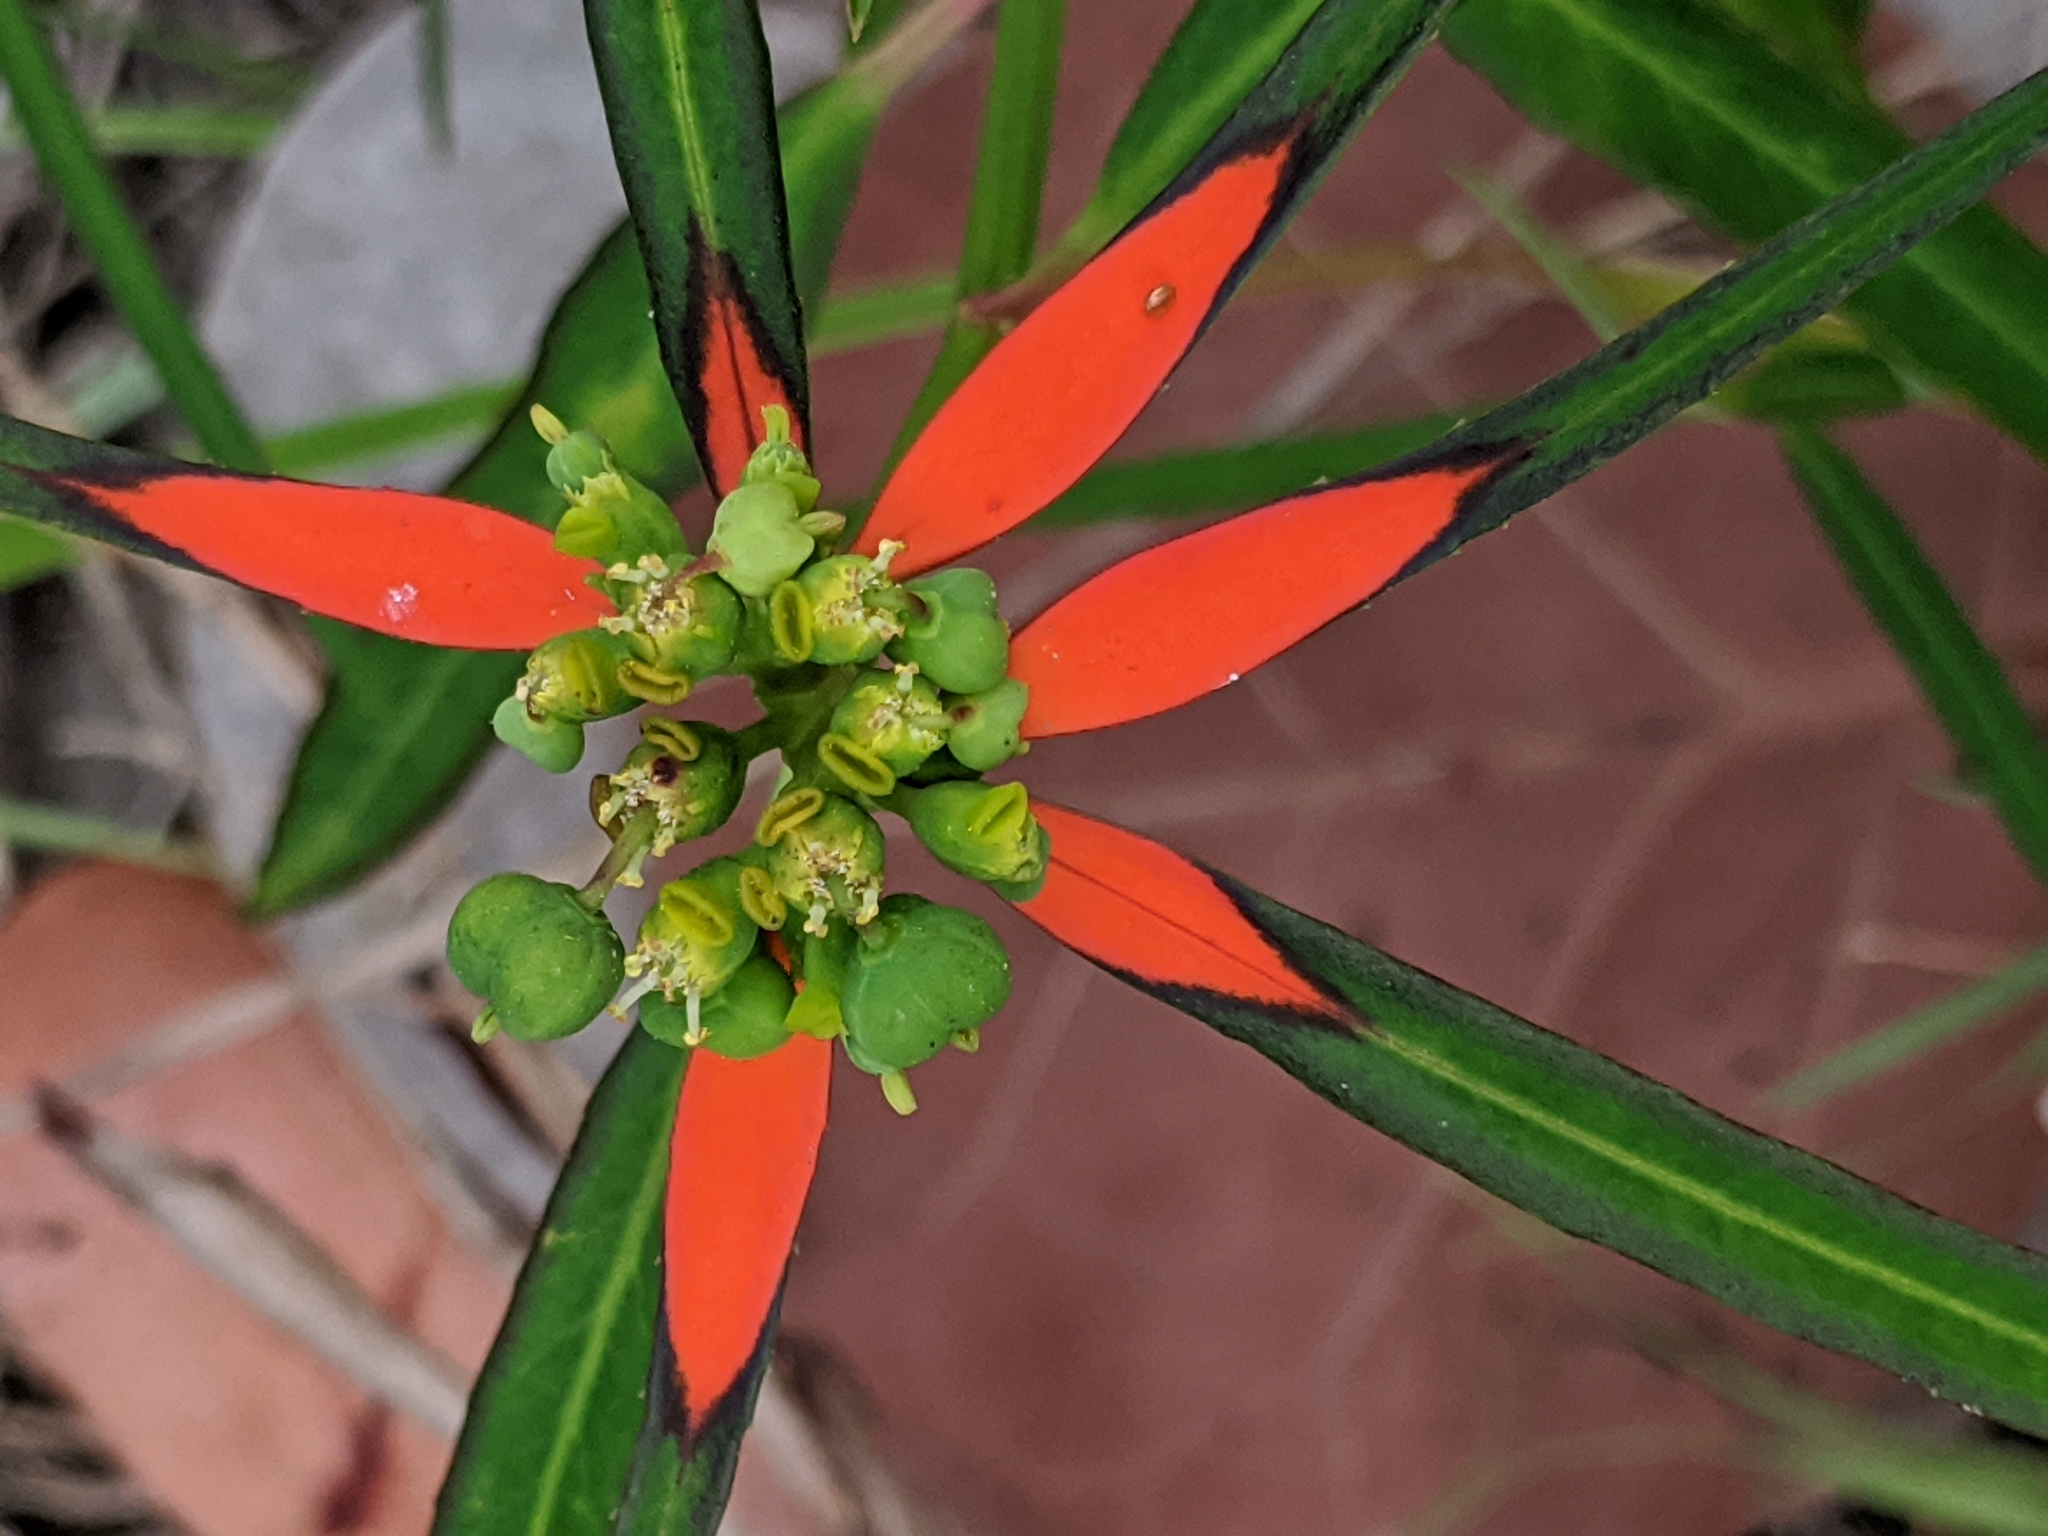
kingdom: Plantae
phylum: Tracheophyta
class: Magnoliopsida
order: Malpighiales
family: Euphorbiaceae
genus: Euphorbia
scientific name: Euphorbia heterophylla
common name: Mexican fireplant
